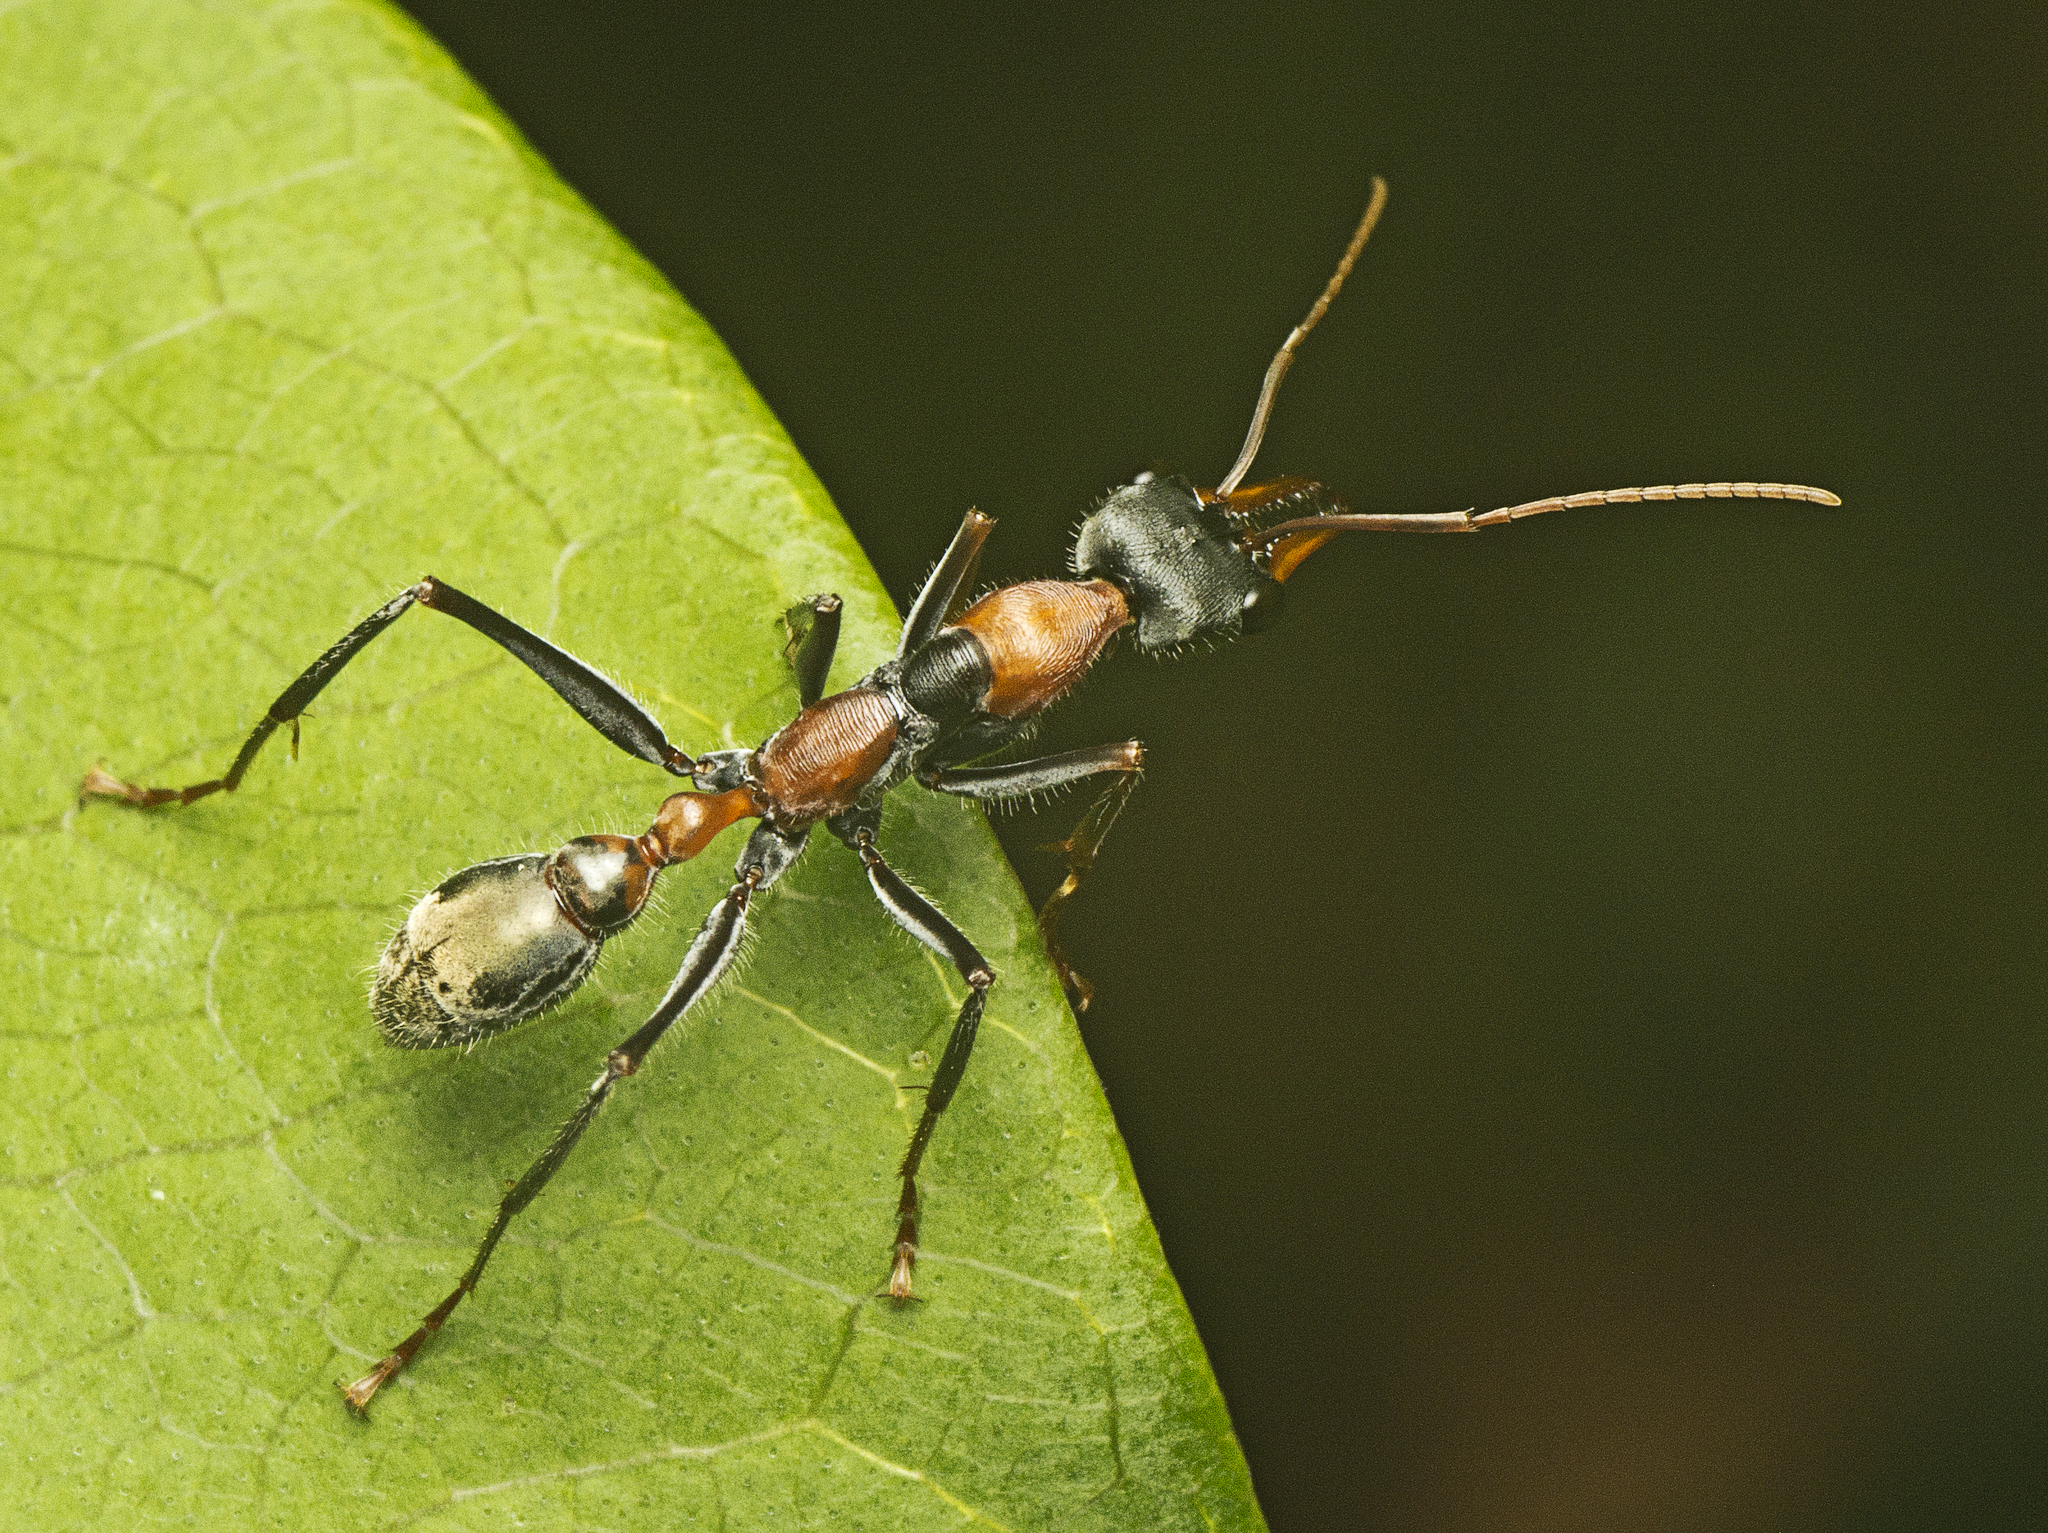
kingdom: Animalia
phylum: Arthropoda
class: Insecta
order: Hymenoptera
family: Formicidae
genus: Myrmecia
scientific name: Myrmecia nigrocincta
